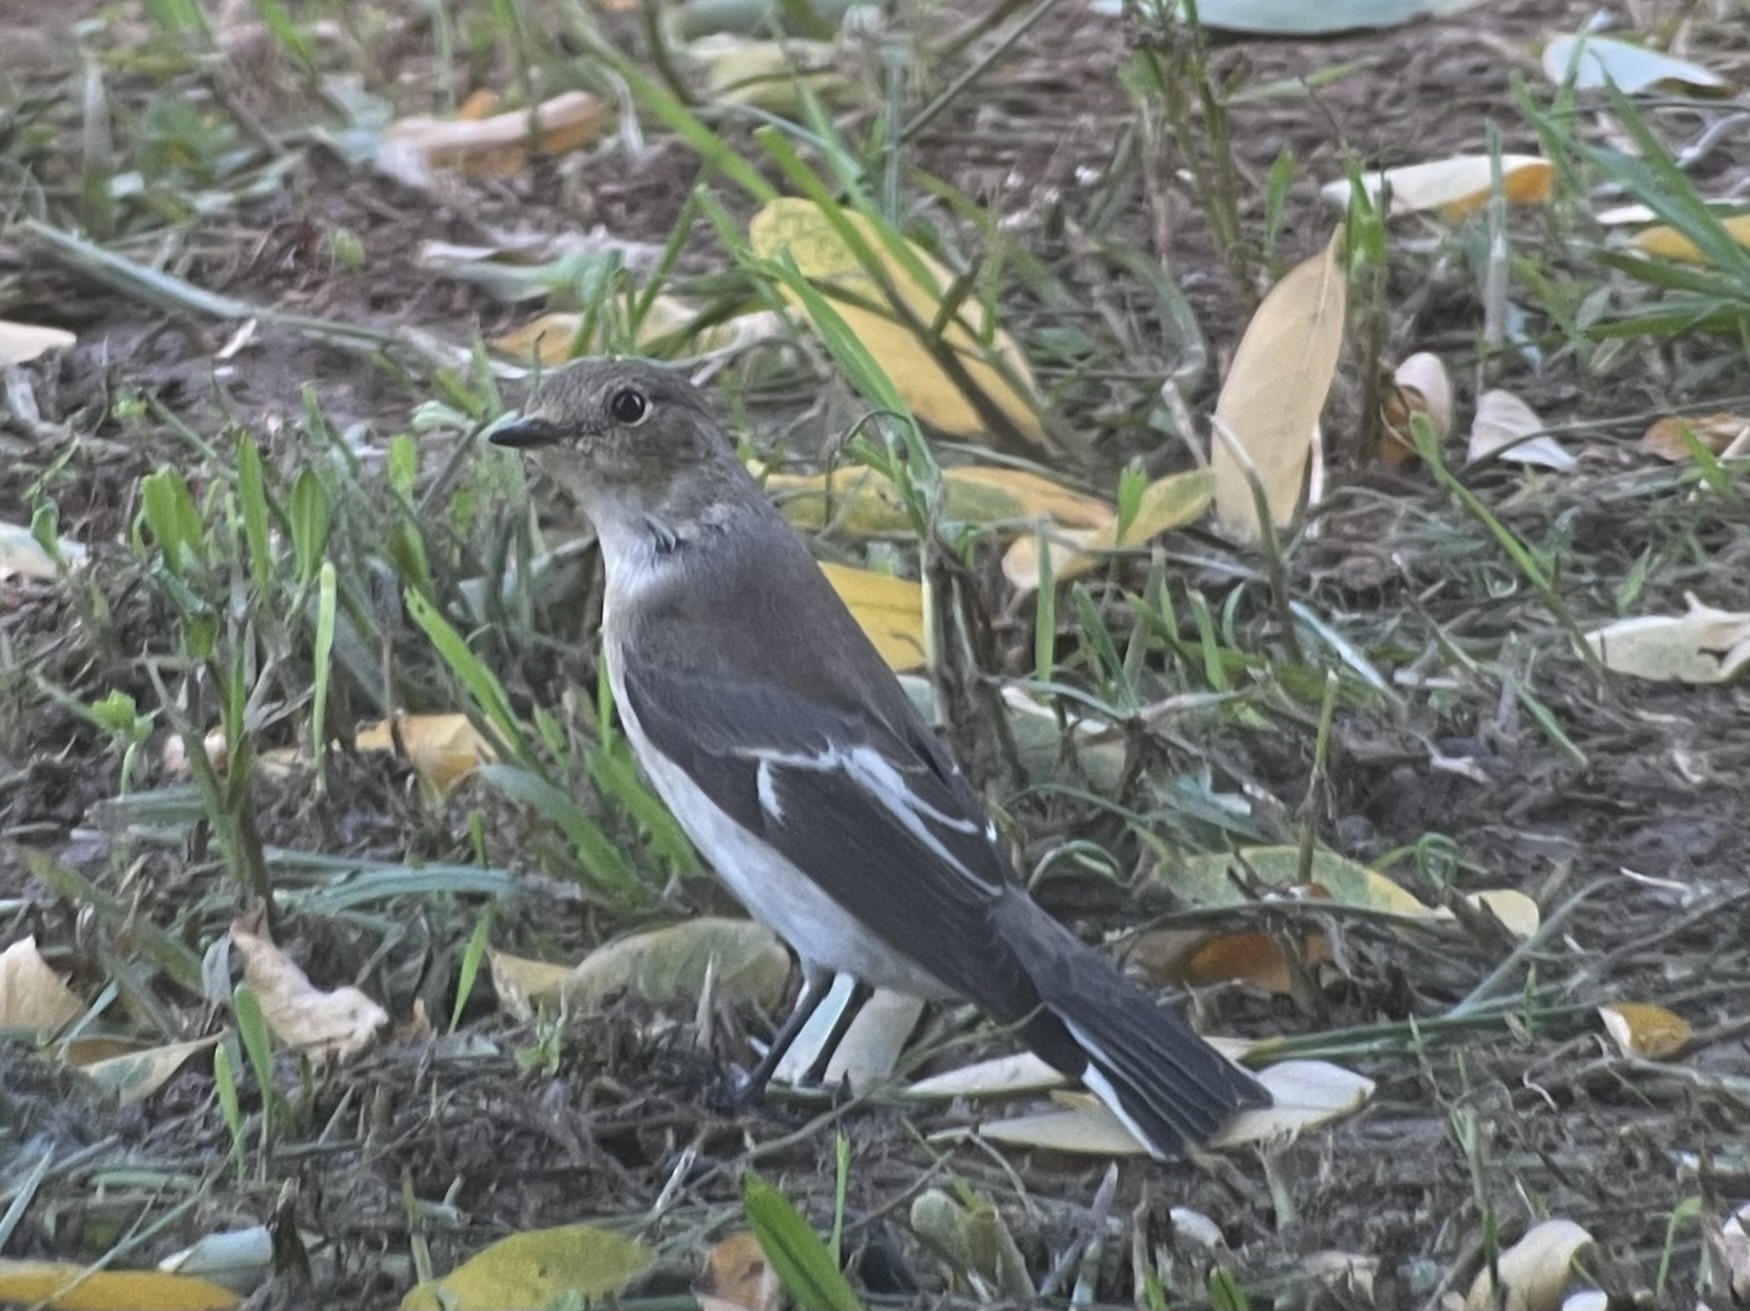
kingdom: Animalia
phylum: Chordata
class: Aves
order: Passeriformes
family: Muscicapidae
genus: Ficedula
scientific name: Ficedula hypoleuca
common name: European pied flycatcher
